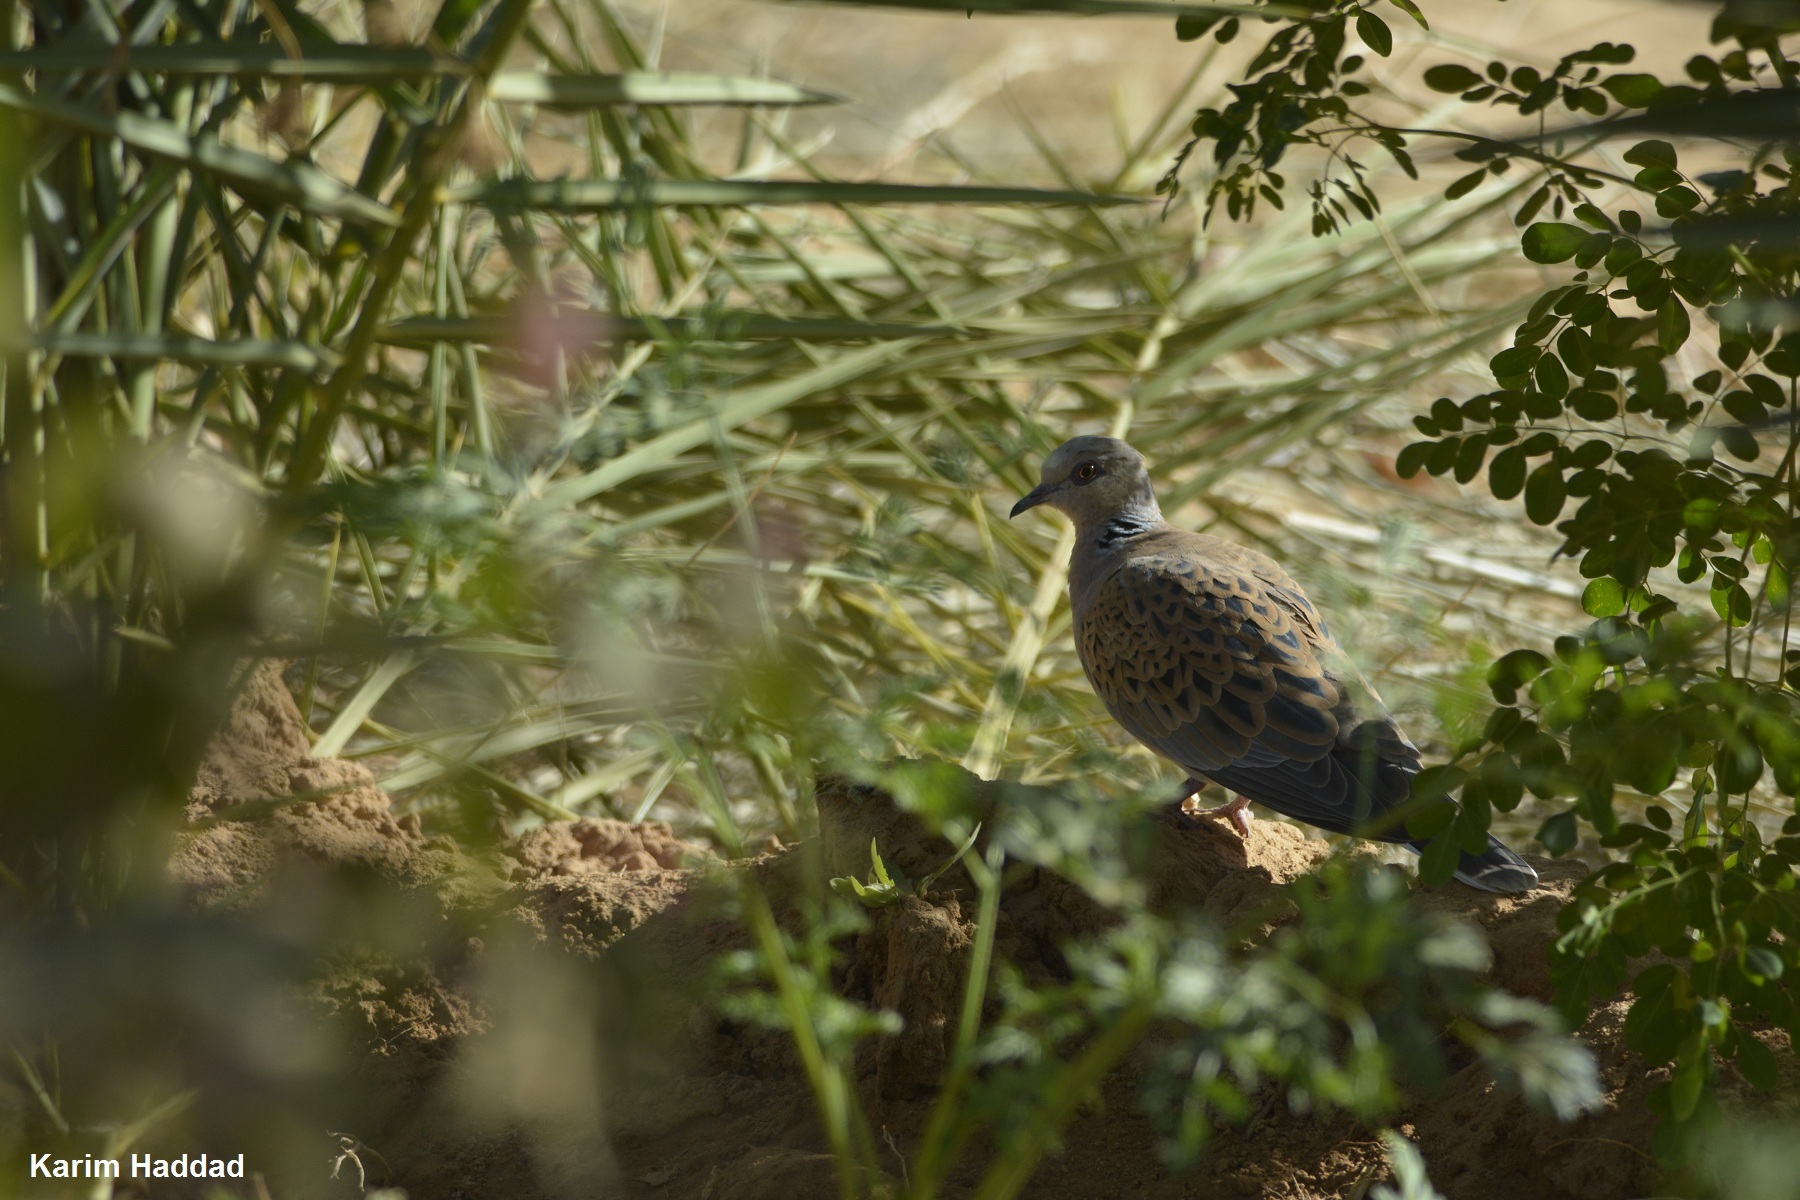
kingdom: Animalia
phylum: Chordata
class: Aves
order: Columbiformes
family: Columbidae
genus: Streptopelia
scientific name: Streptopelia turtur
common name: European turtle dove
